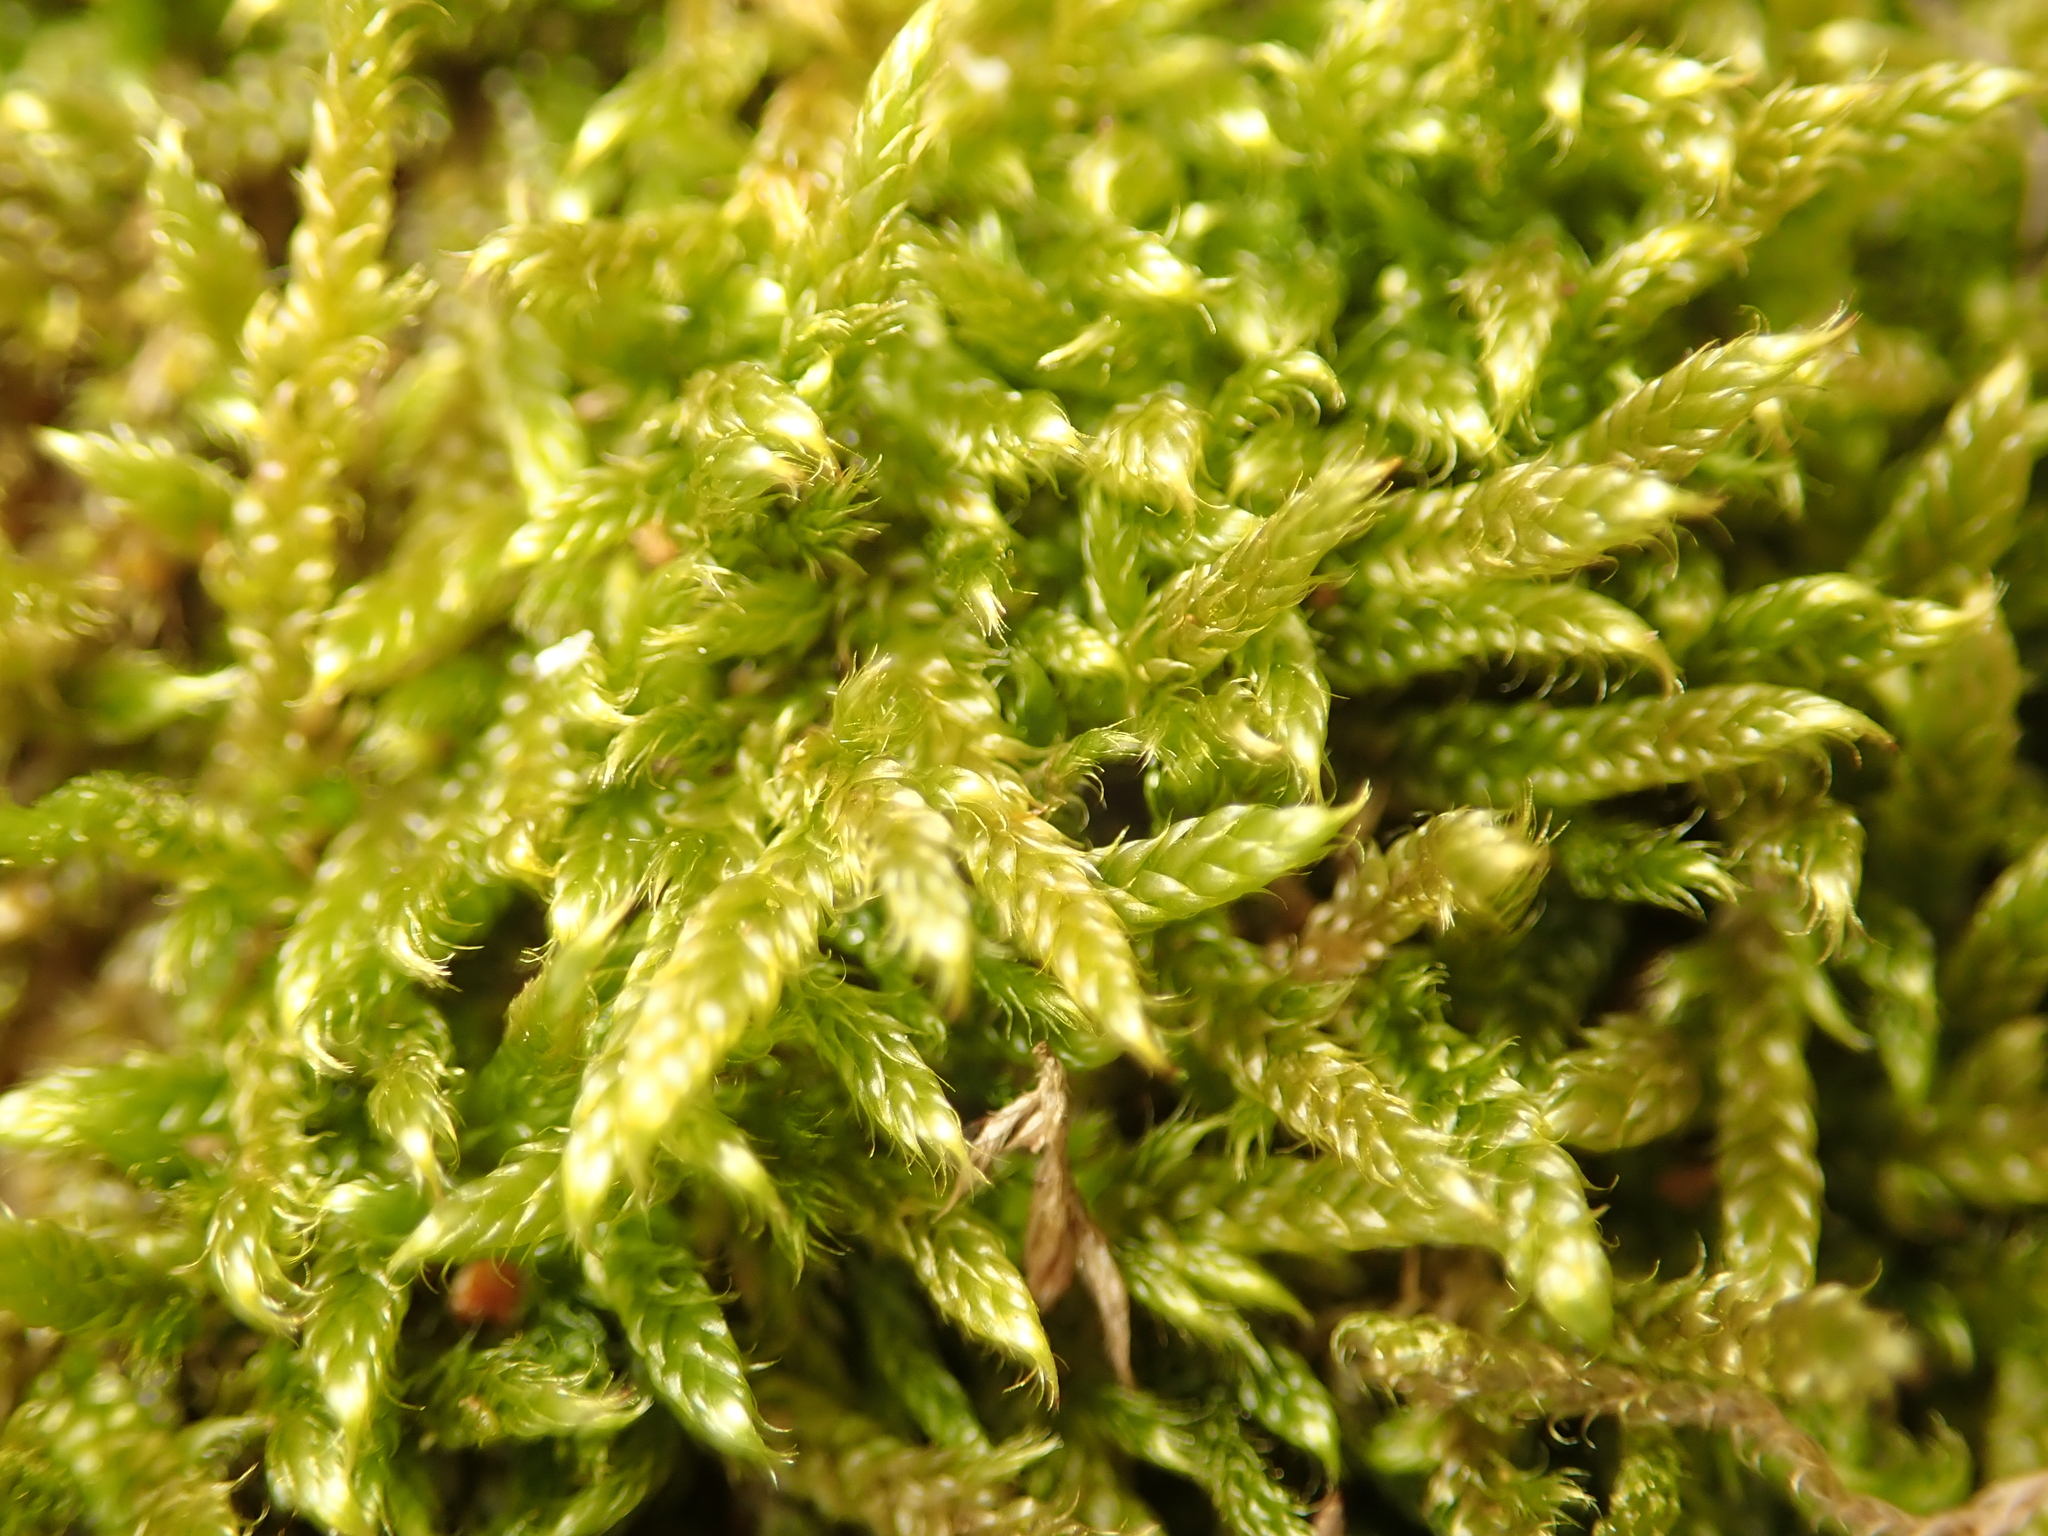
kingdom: Plantae
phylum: Bryophyta
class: Bryopsida
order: Hypnales
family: Hypnaceae
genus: Hypnum
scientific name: Hypnum cupressiforme
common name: Cypress-leaved plait-moss
